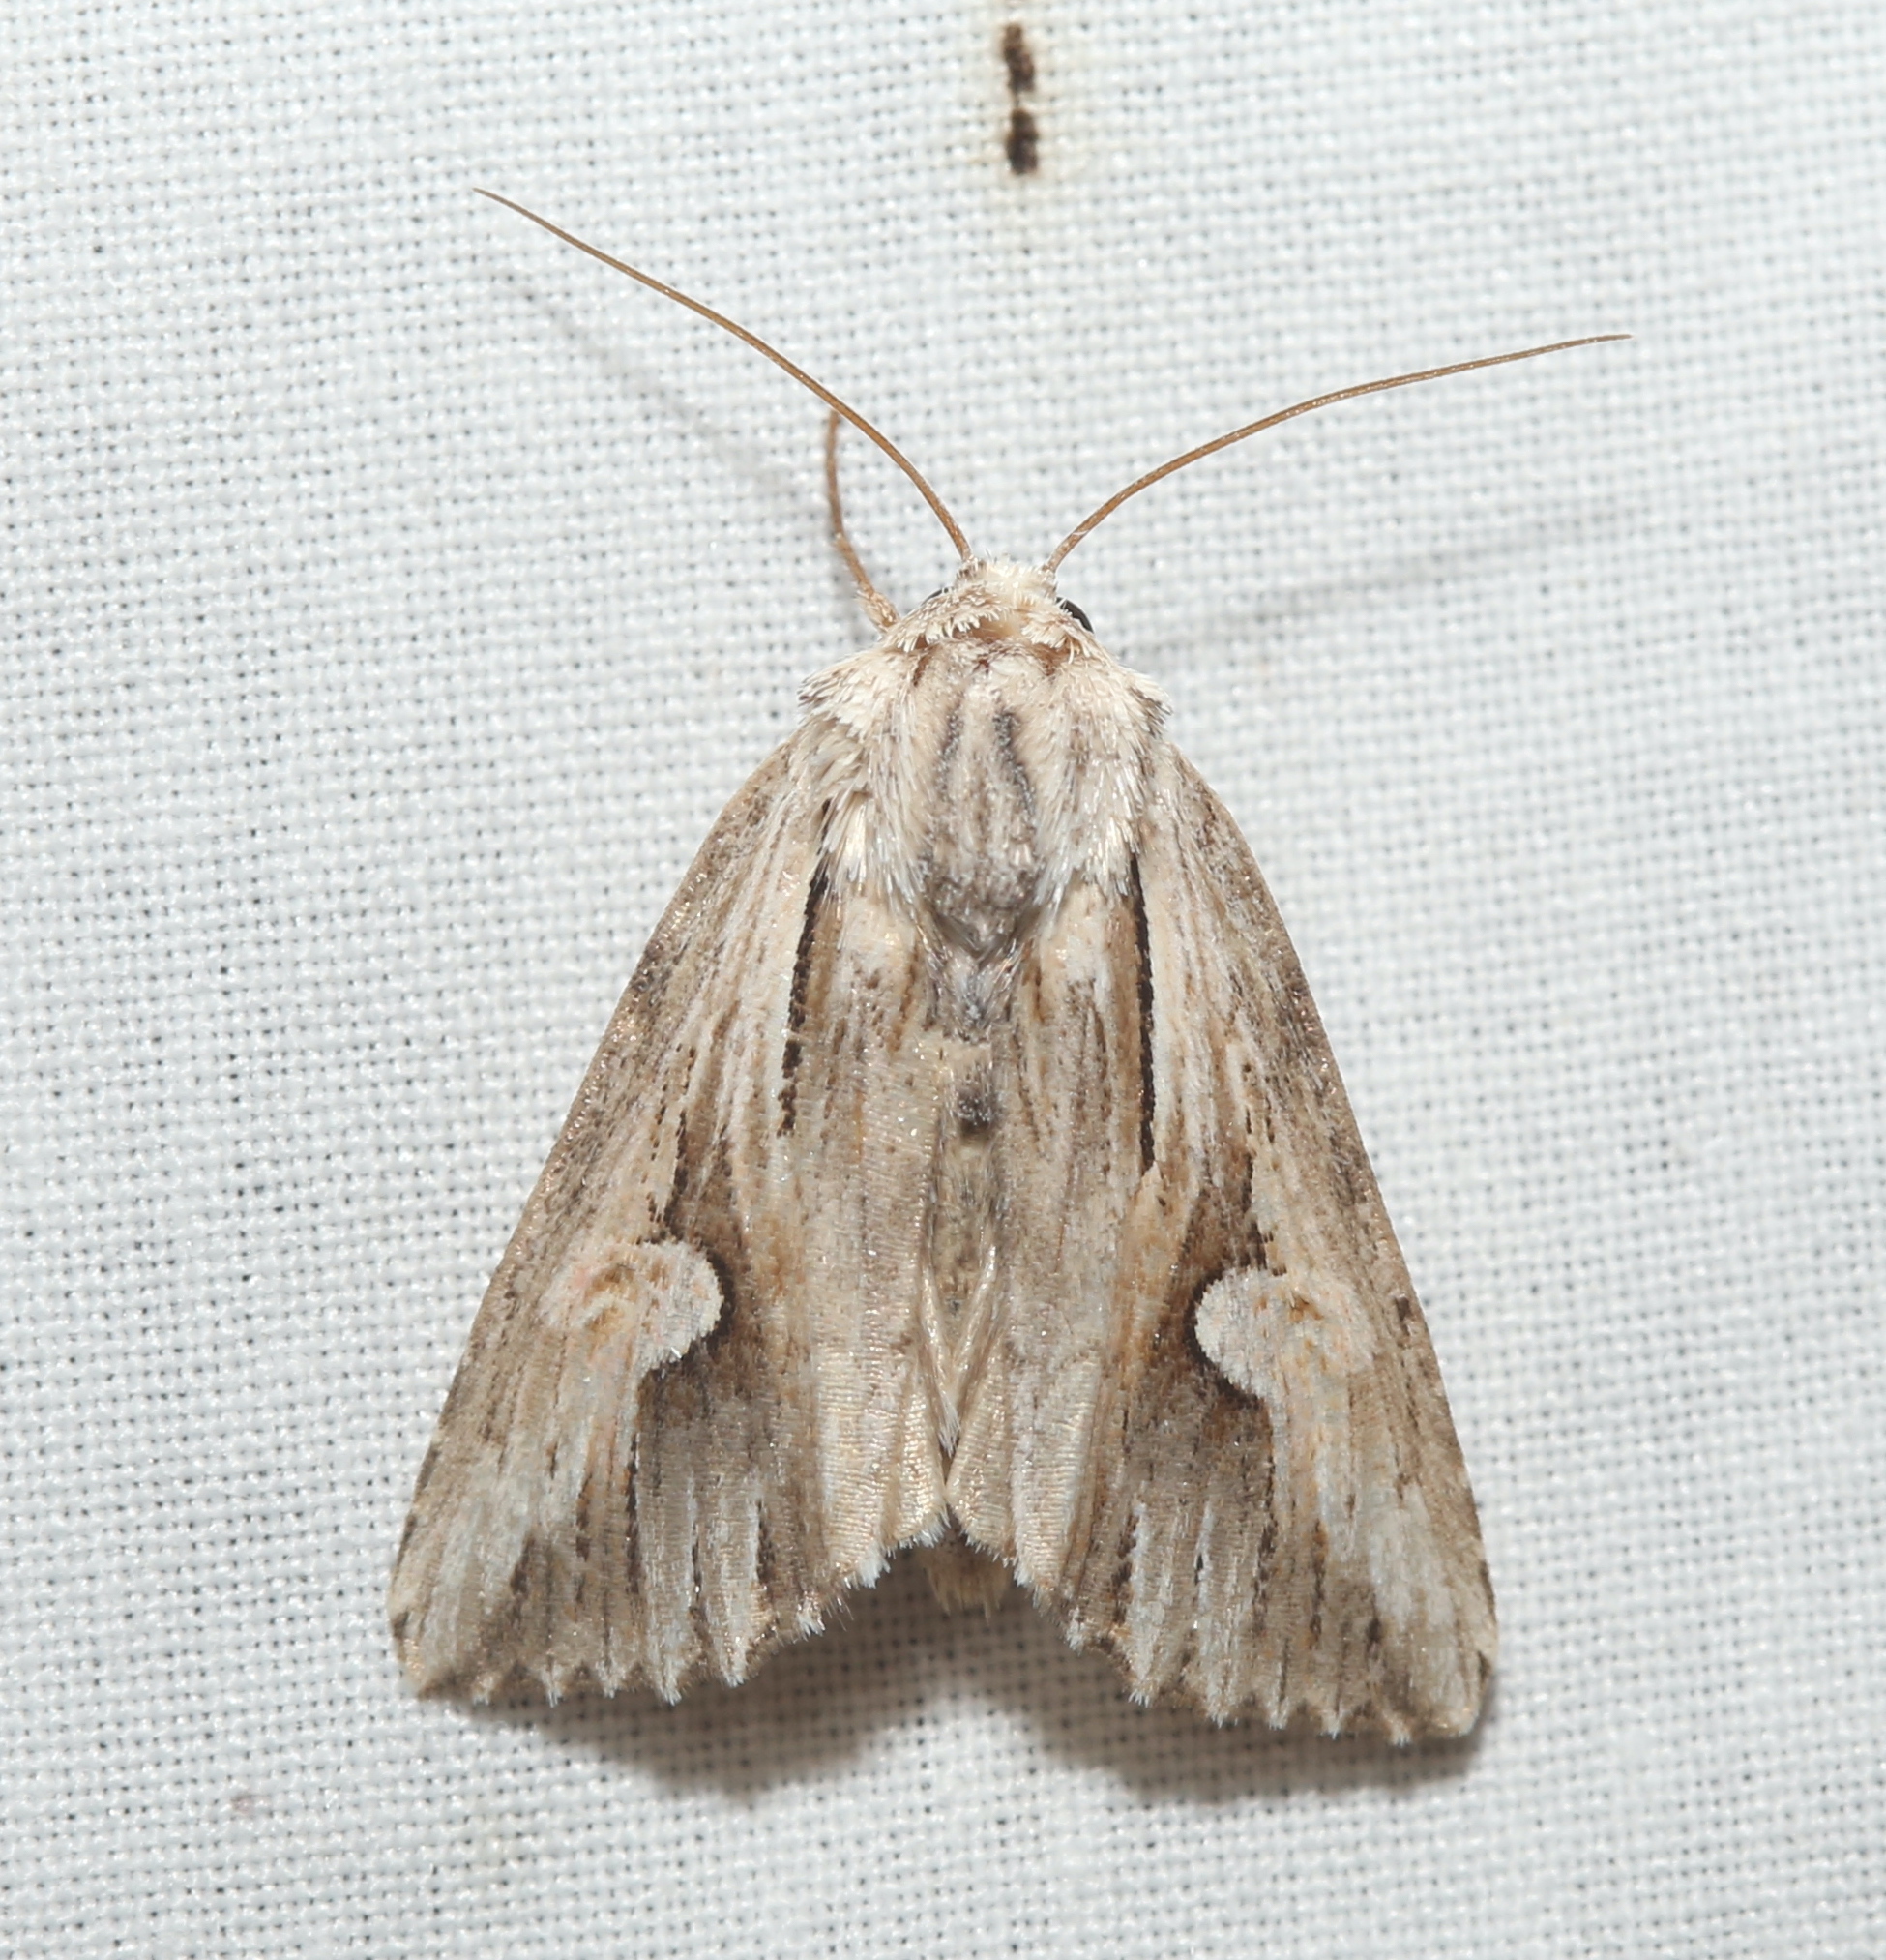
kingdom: Animalia
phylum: Arthropoda
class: Insecta
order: Lepidoptera
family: Noctuidae
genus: Nedra
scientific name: Nedra ramosula
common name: Gray half-spot
